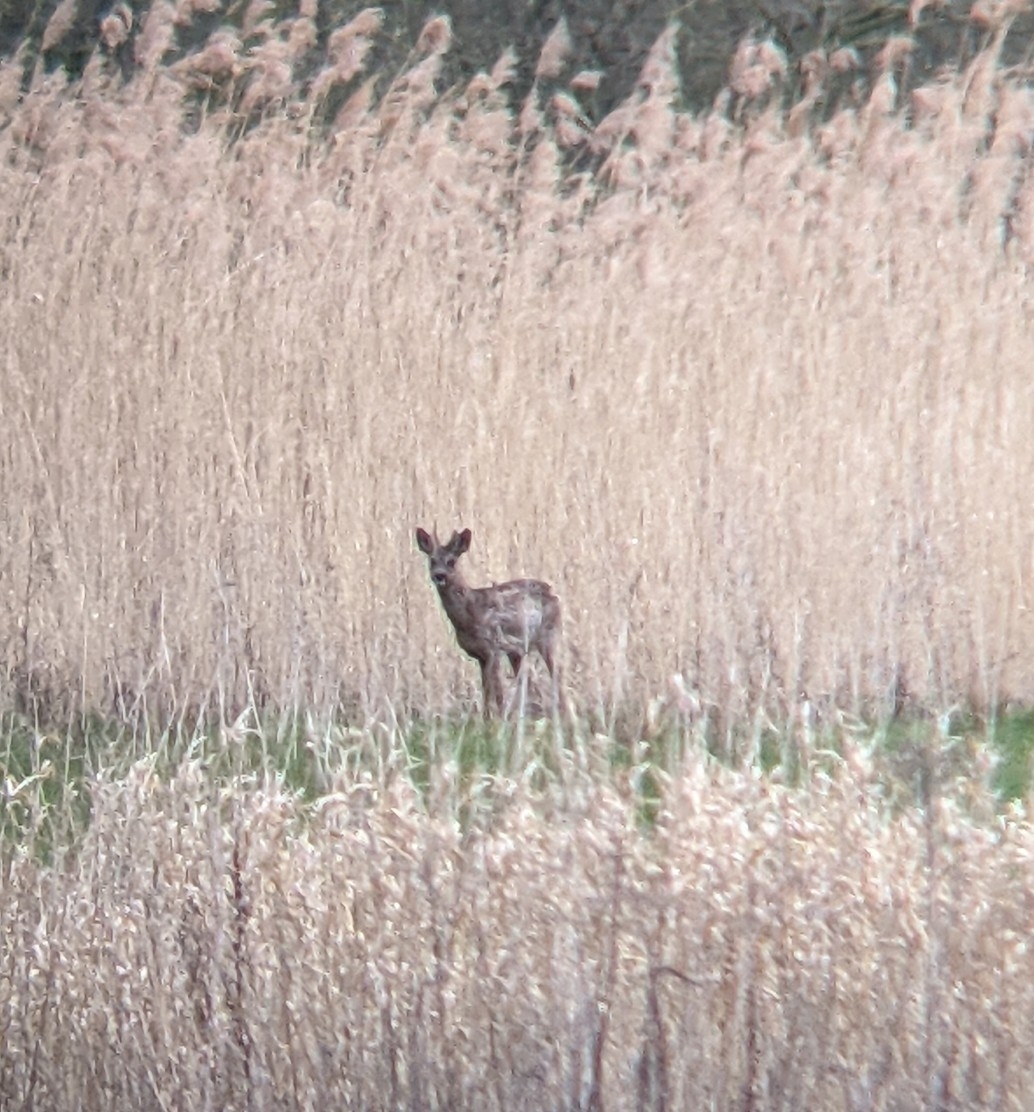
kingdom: Animalia
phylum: Chordata
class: Mammalia
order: Artiodactyla
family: Cervidae
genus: Capreolus
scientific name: Capreolus capreolus
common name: Western roe deer
